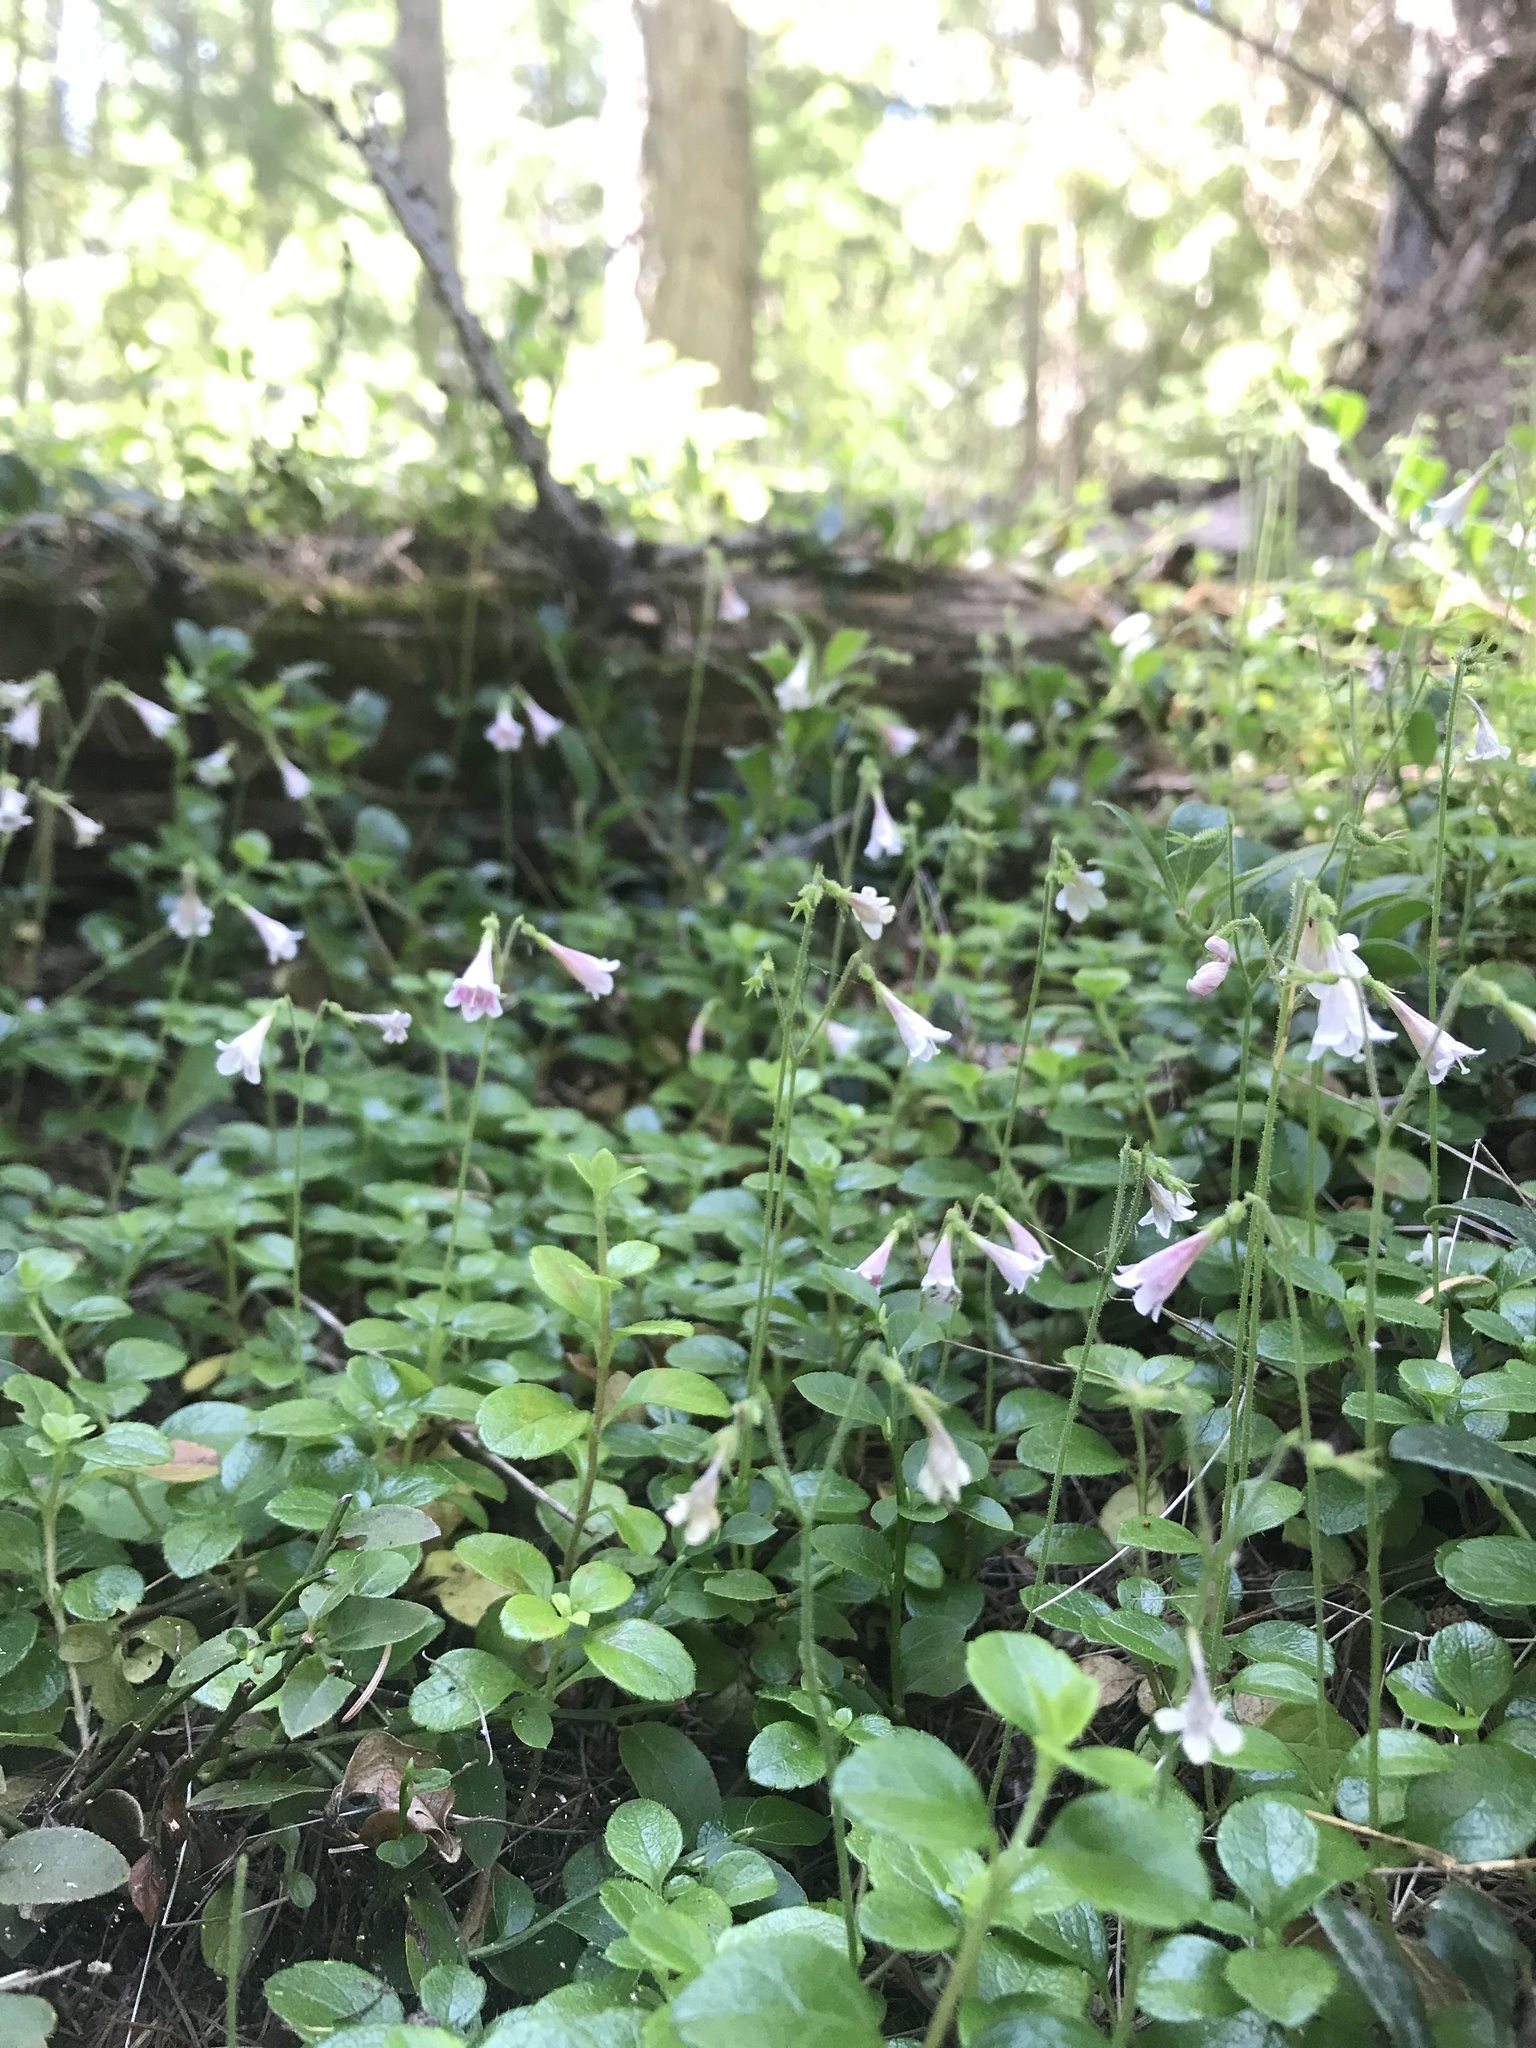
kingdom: Plantae
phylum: Tracheophyta
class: Magnoliopsida
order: Dipsacales
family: Caprifoliaceae
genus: Linnaea
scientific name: Linnaea borealis
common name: Twinflower
